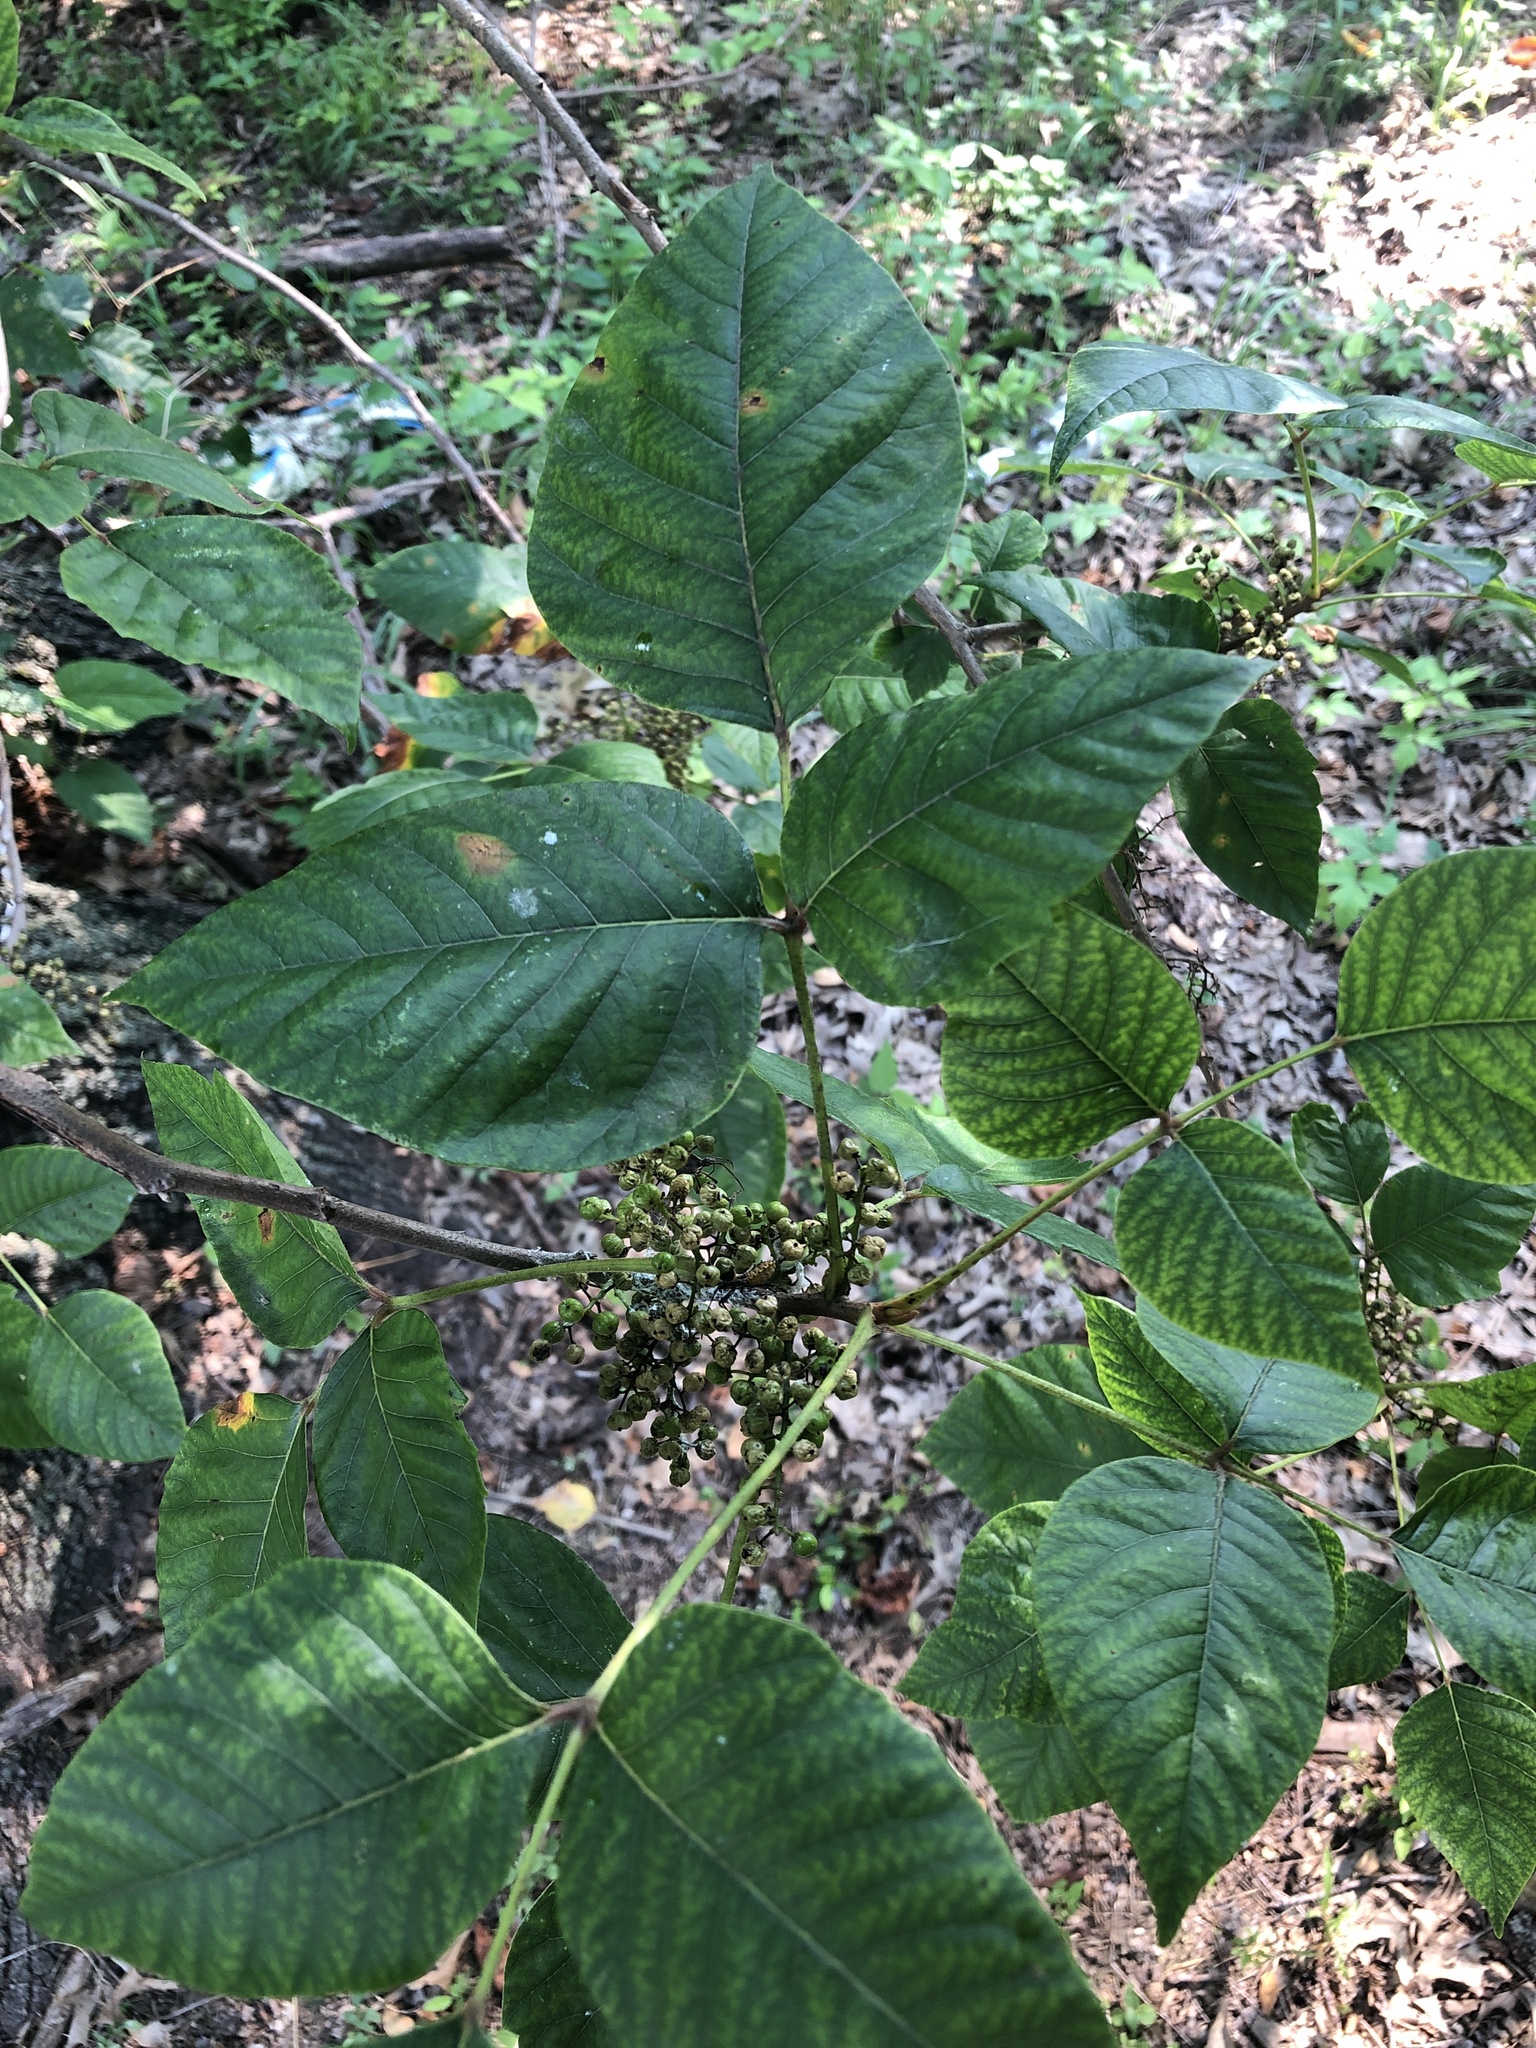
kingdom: Plantae
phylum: Tracheophyta
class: Magnoliopsida
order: Sapindales
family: Anacardiaceae
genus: Toxicodendron
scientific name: Toxicodendron radicans
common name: Poison ivy
